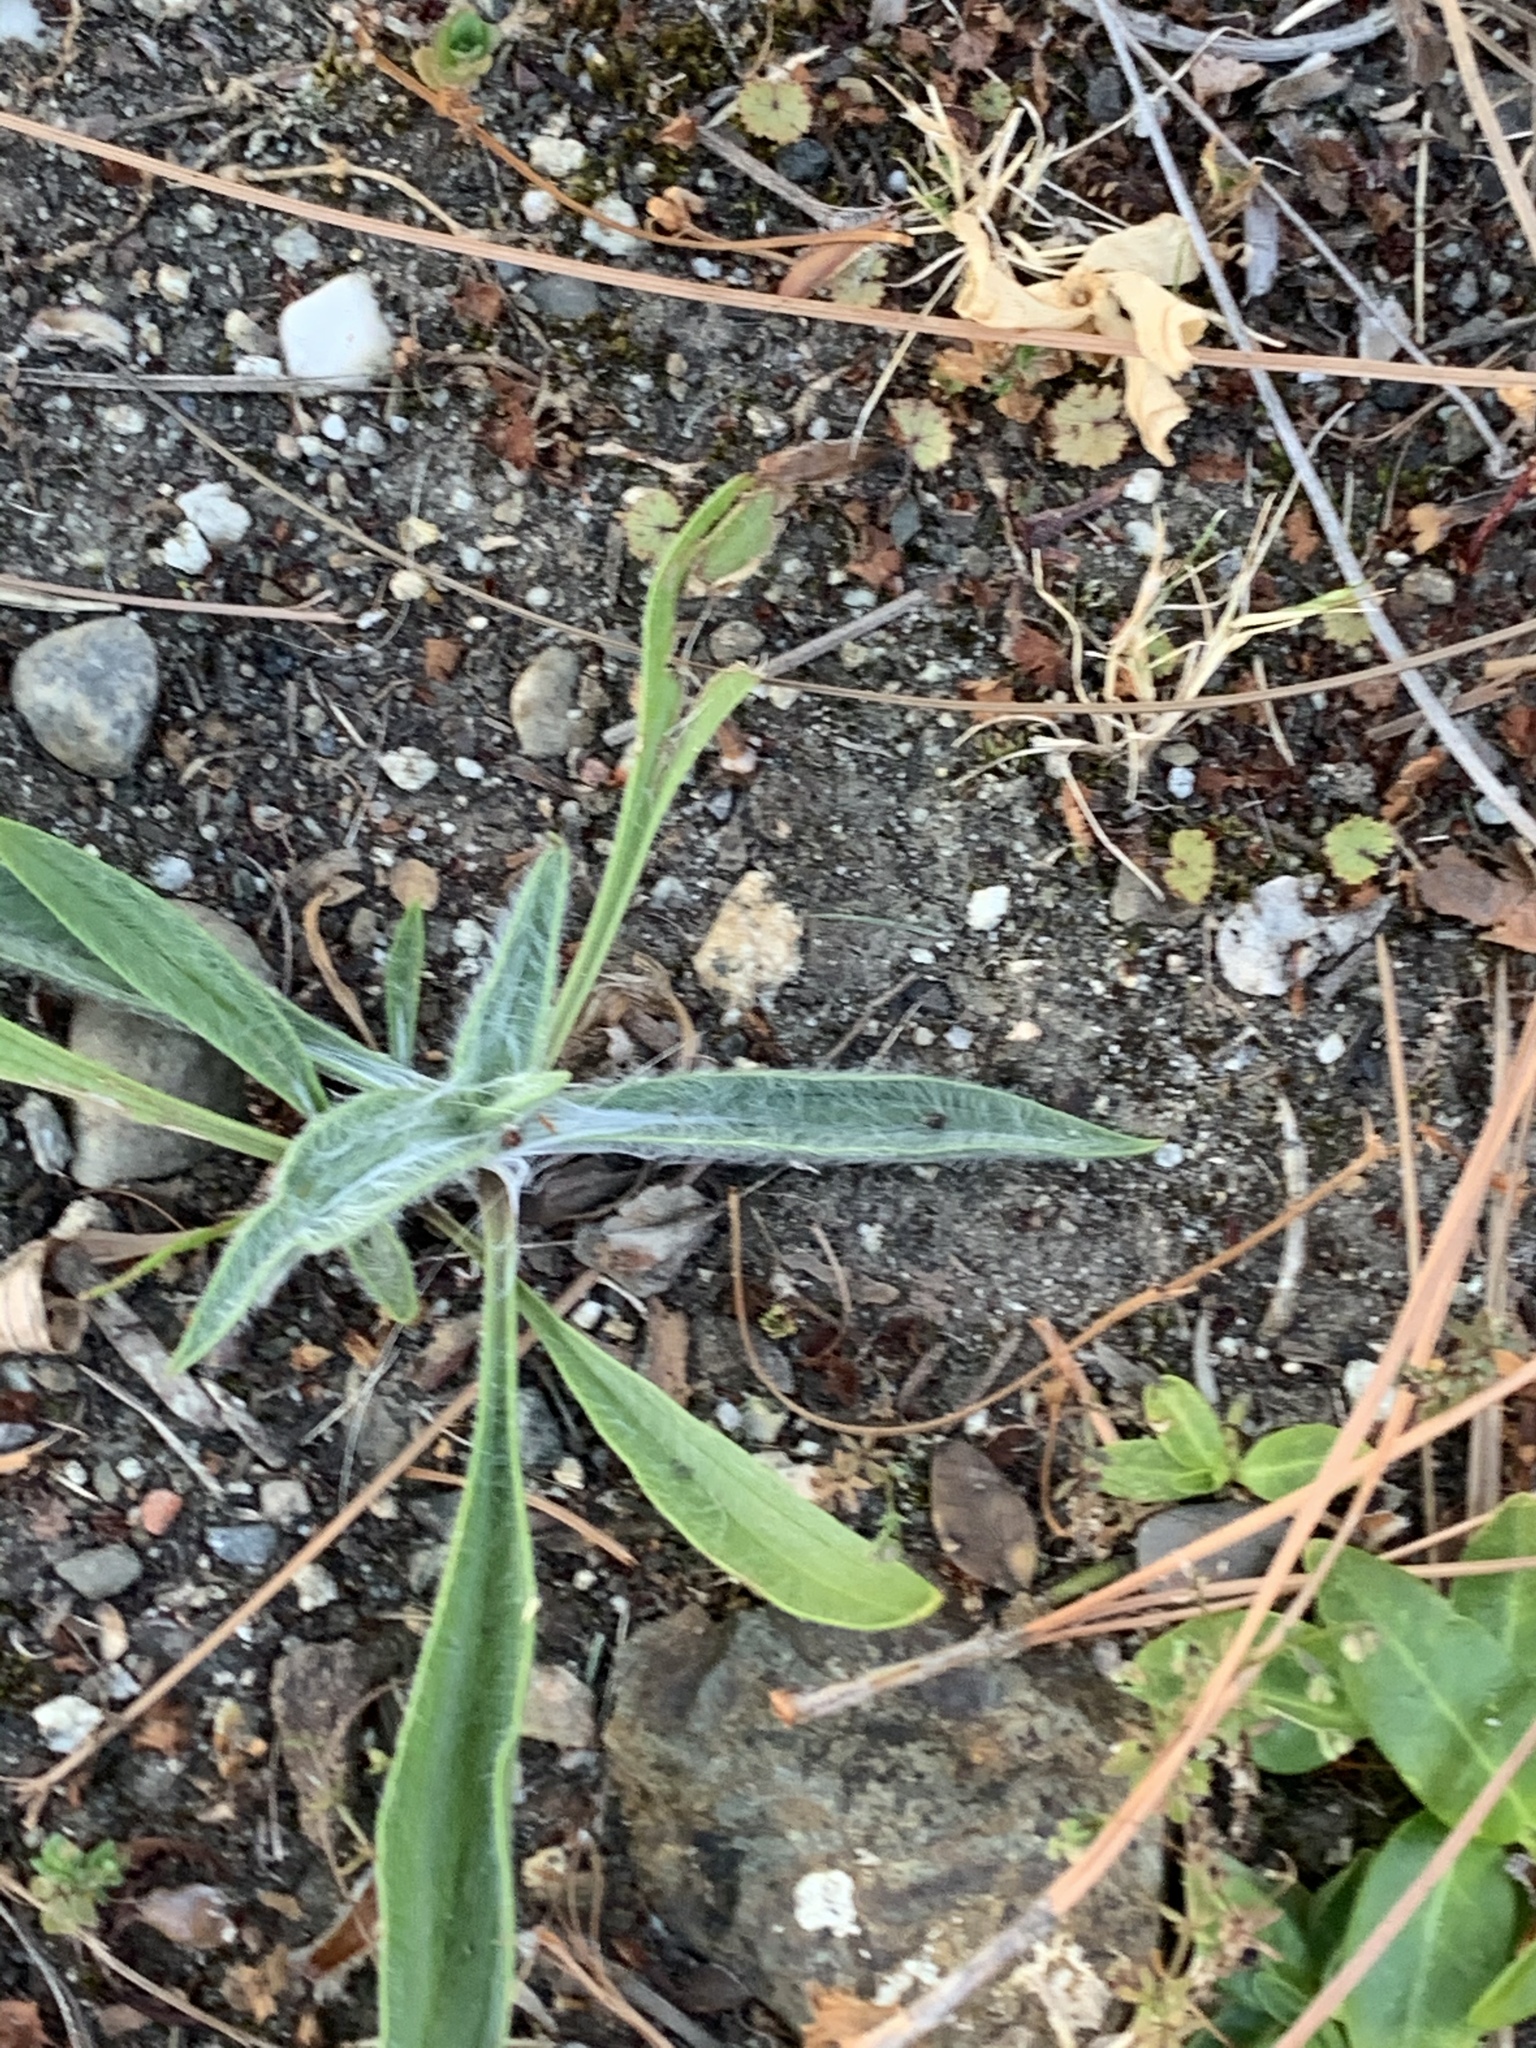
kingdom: Plantae
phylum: Tracheophyta
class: Magnoliopsida
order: Lamiales
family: Plantaginaceae
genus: Plantago
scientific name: Plantago lanceolata
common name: Ribwort plantain
